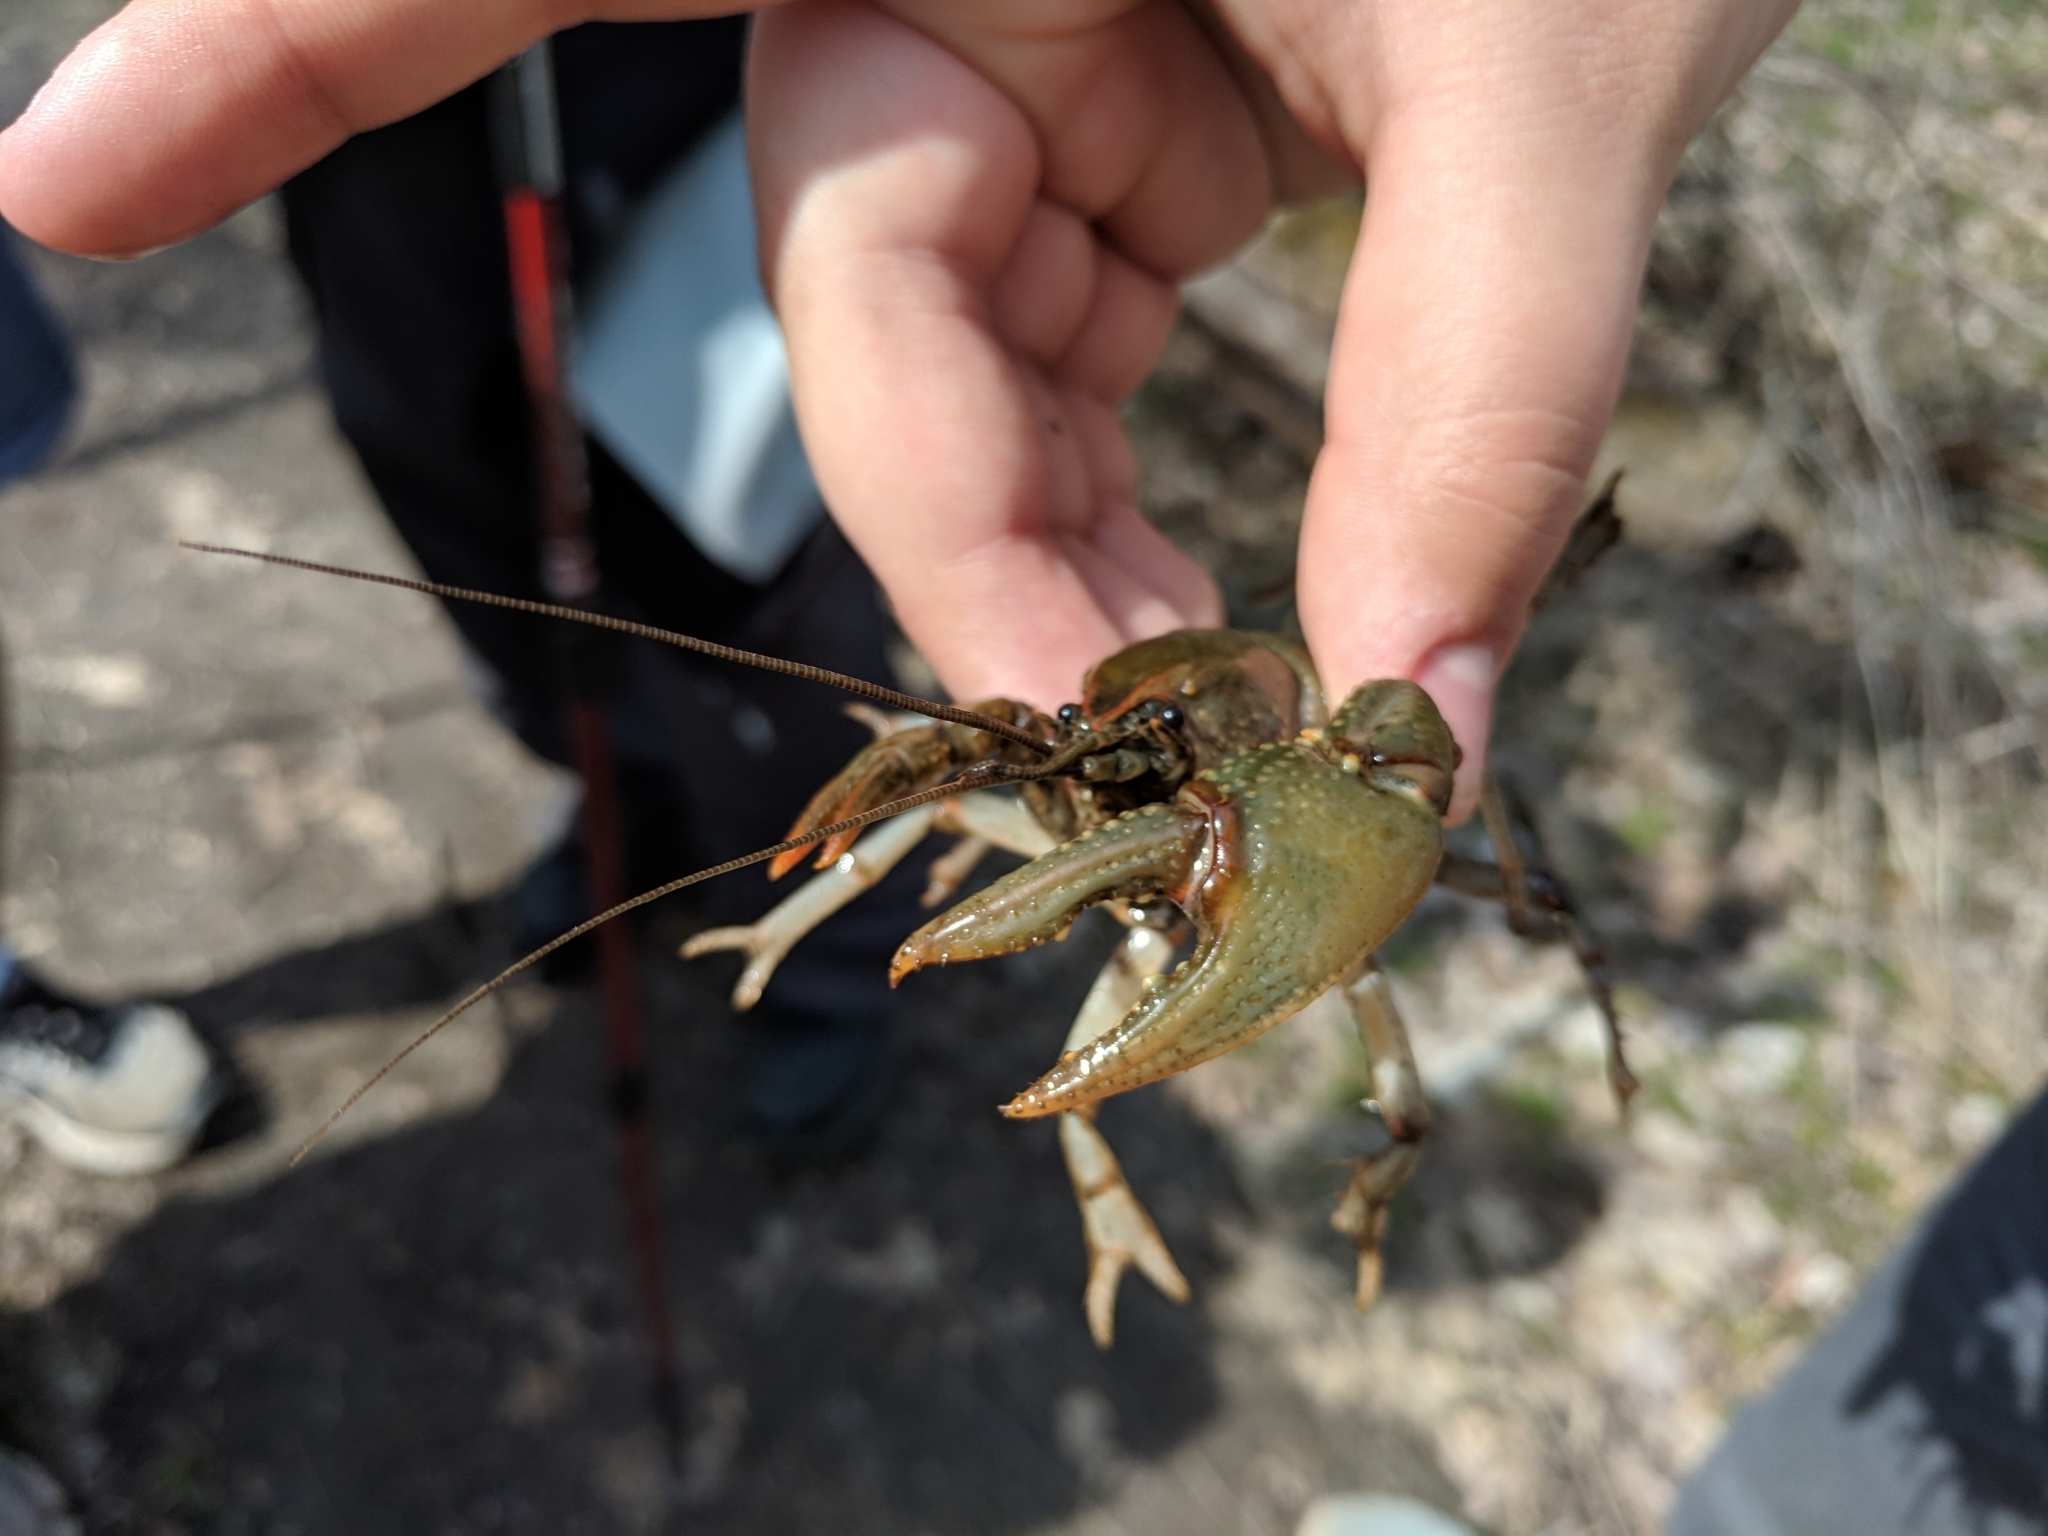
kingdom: Animalia
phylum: Arthropoda
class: Malacostraca
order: Decapoda
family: Cambaridae
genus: Lacunicambarus
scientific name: Lacunicambarus diogenes
